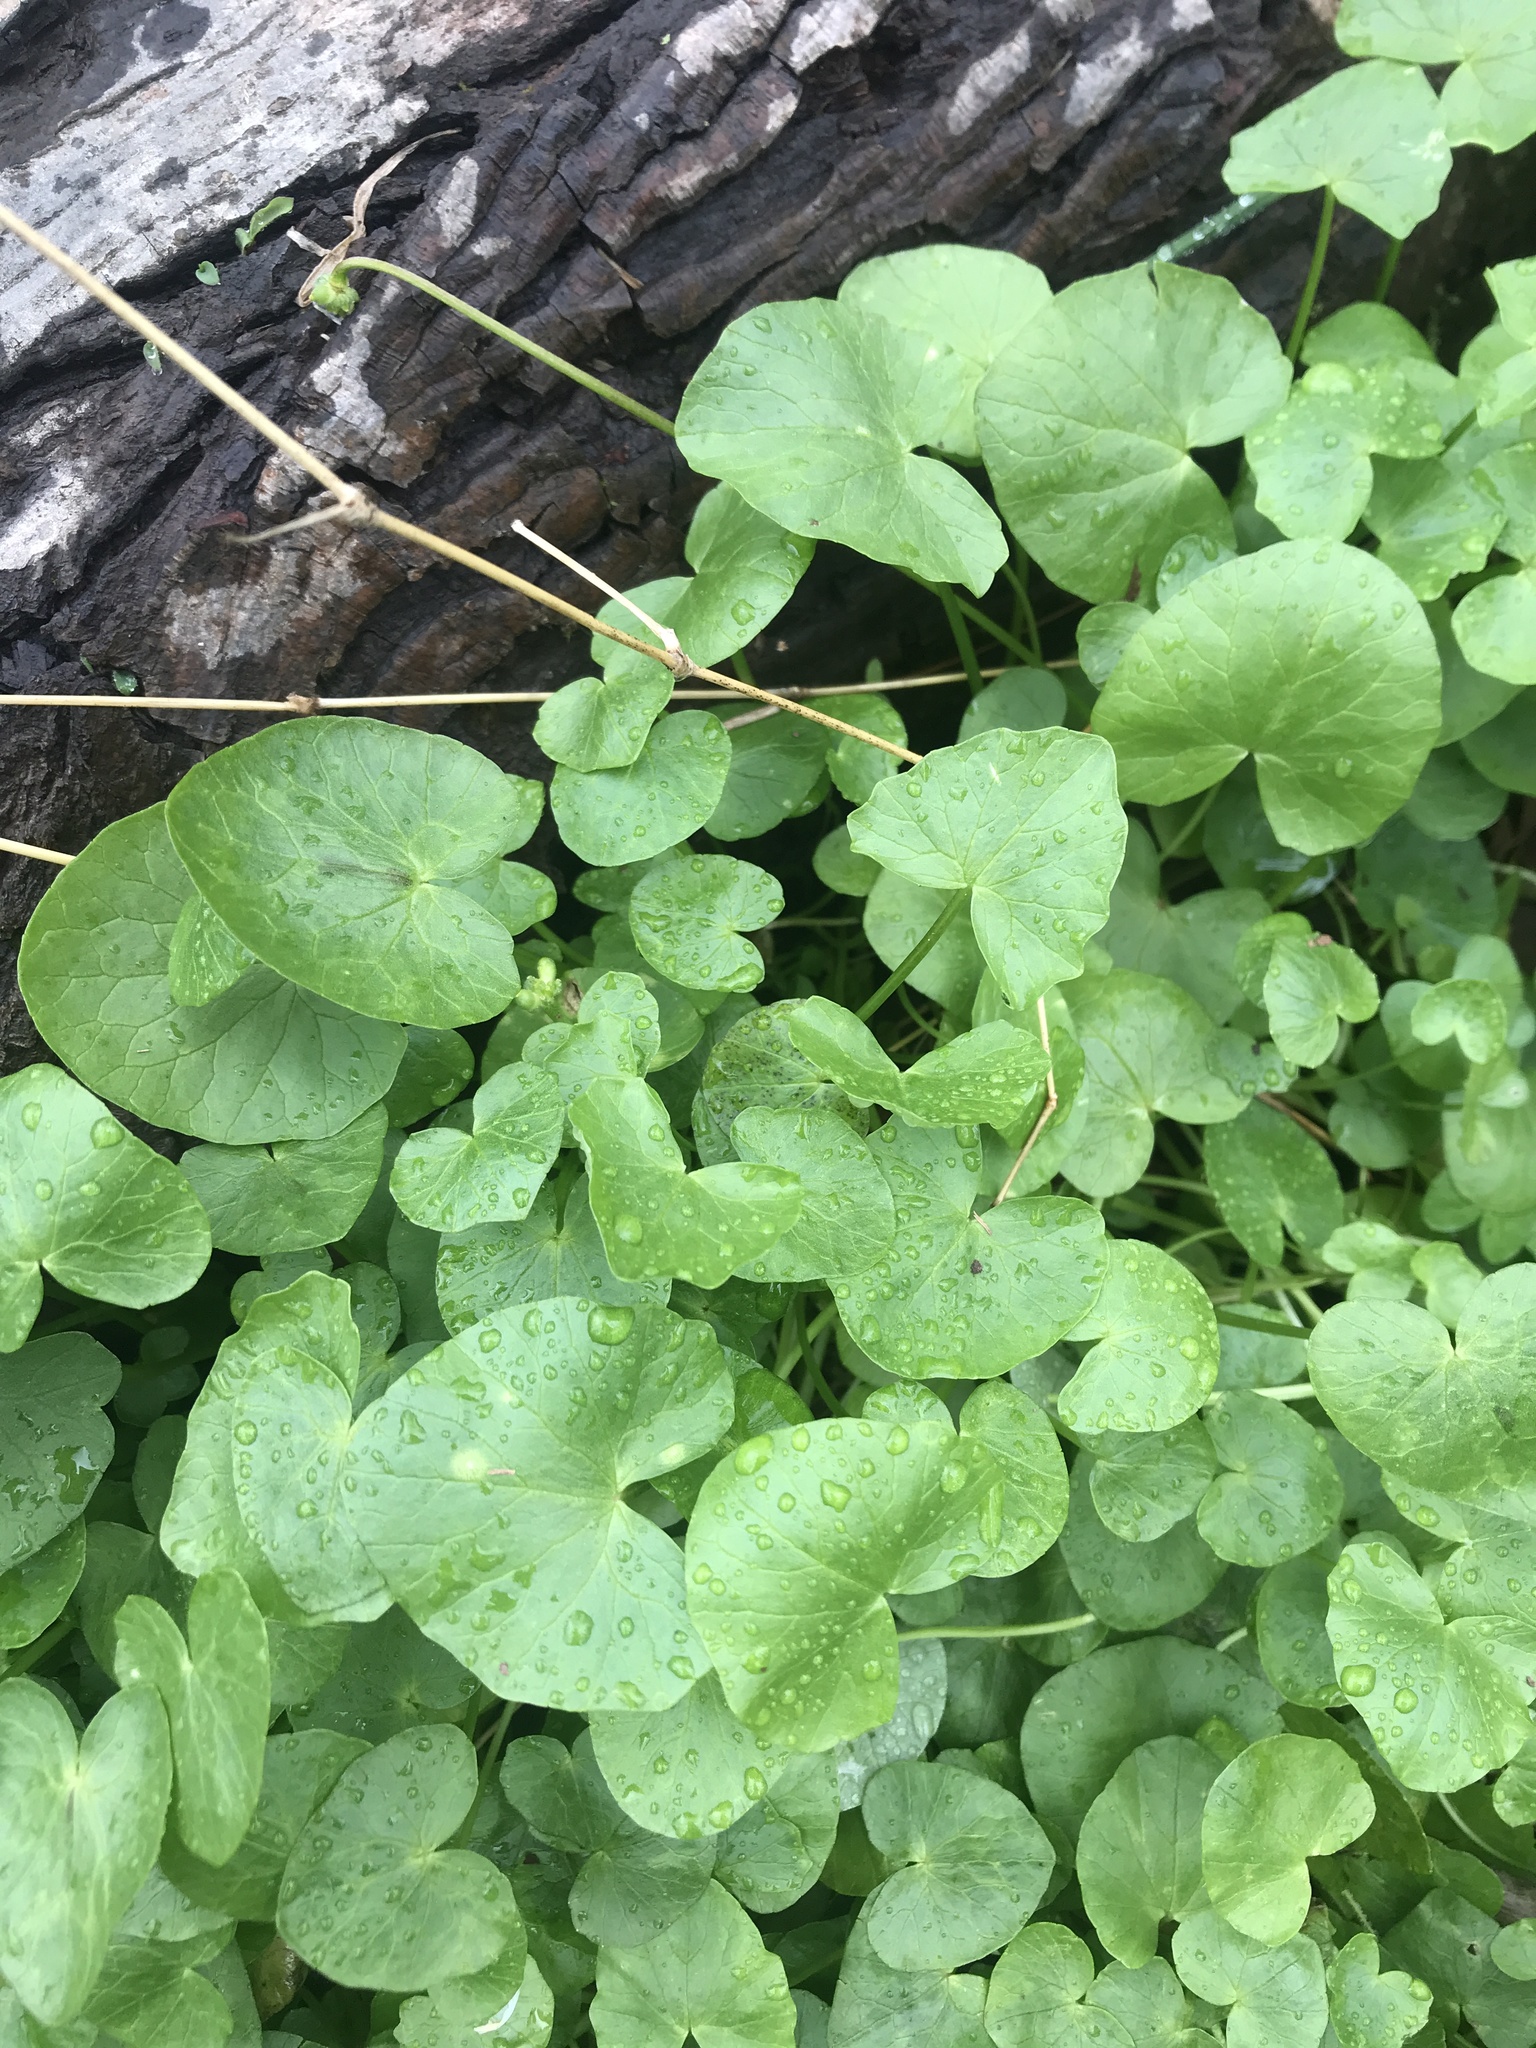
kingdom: Plantae
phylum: Tracheophyta
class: Magnoliopsida
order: Ranunculales
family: Ranunculaceae
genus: Ficaria
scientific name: Ficaria verna
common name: Lesser celandine
